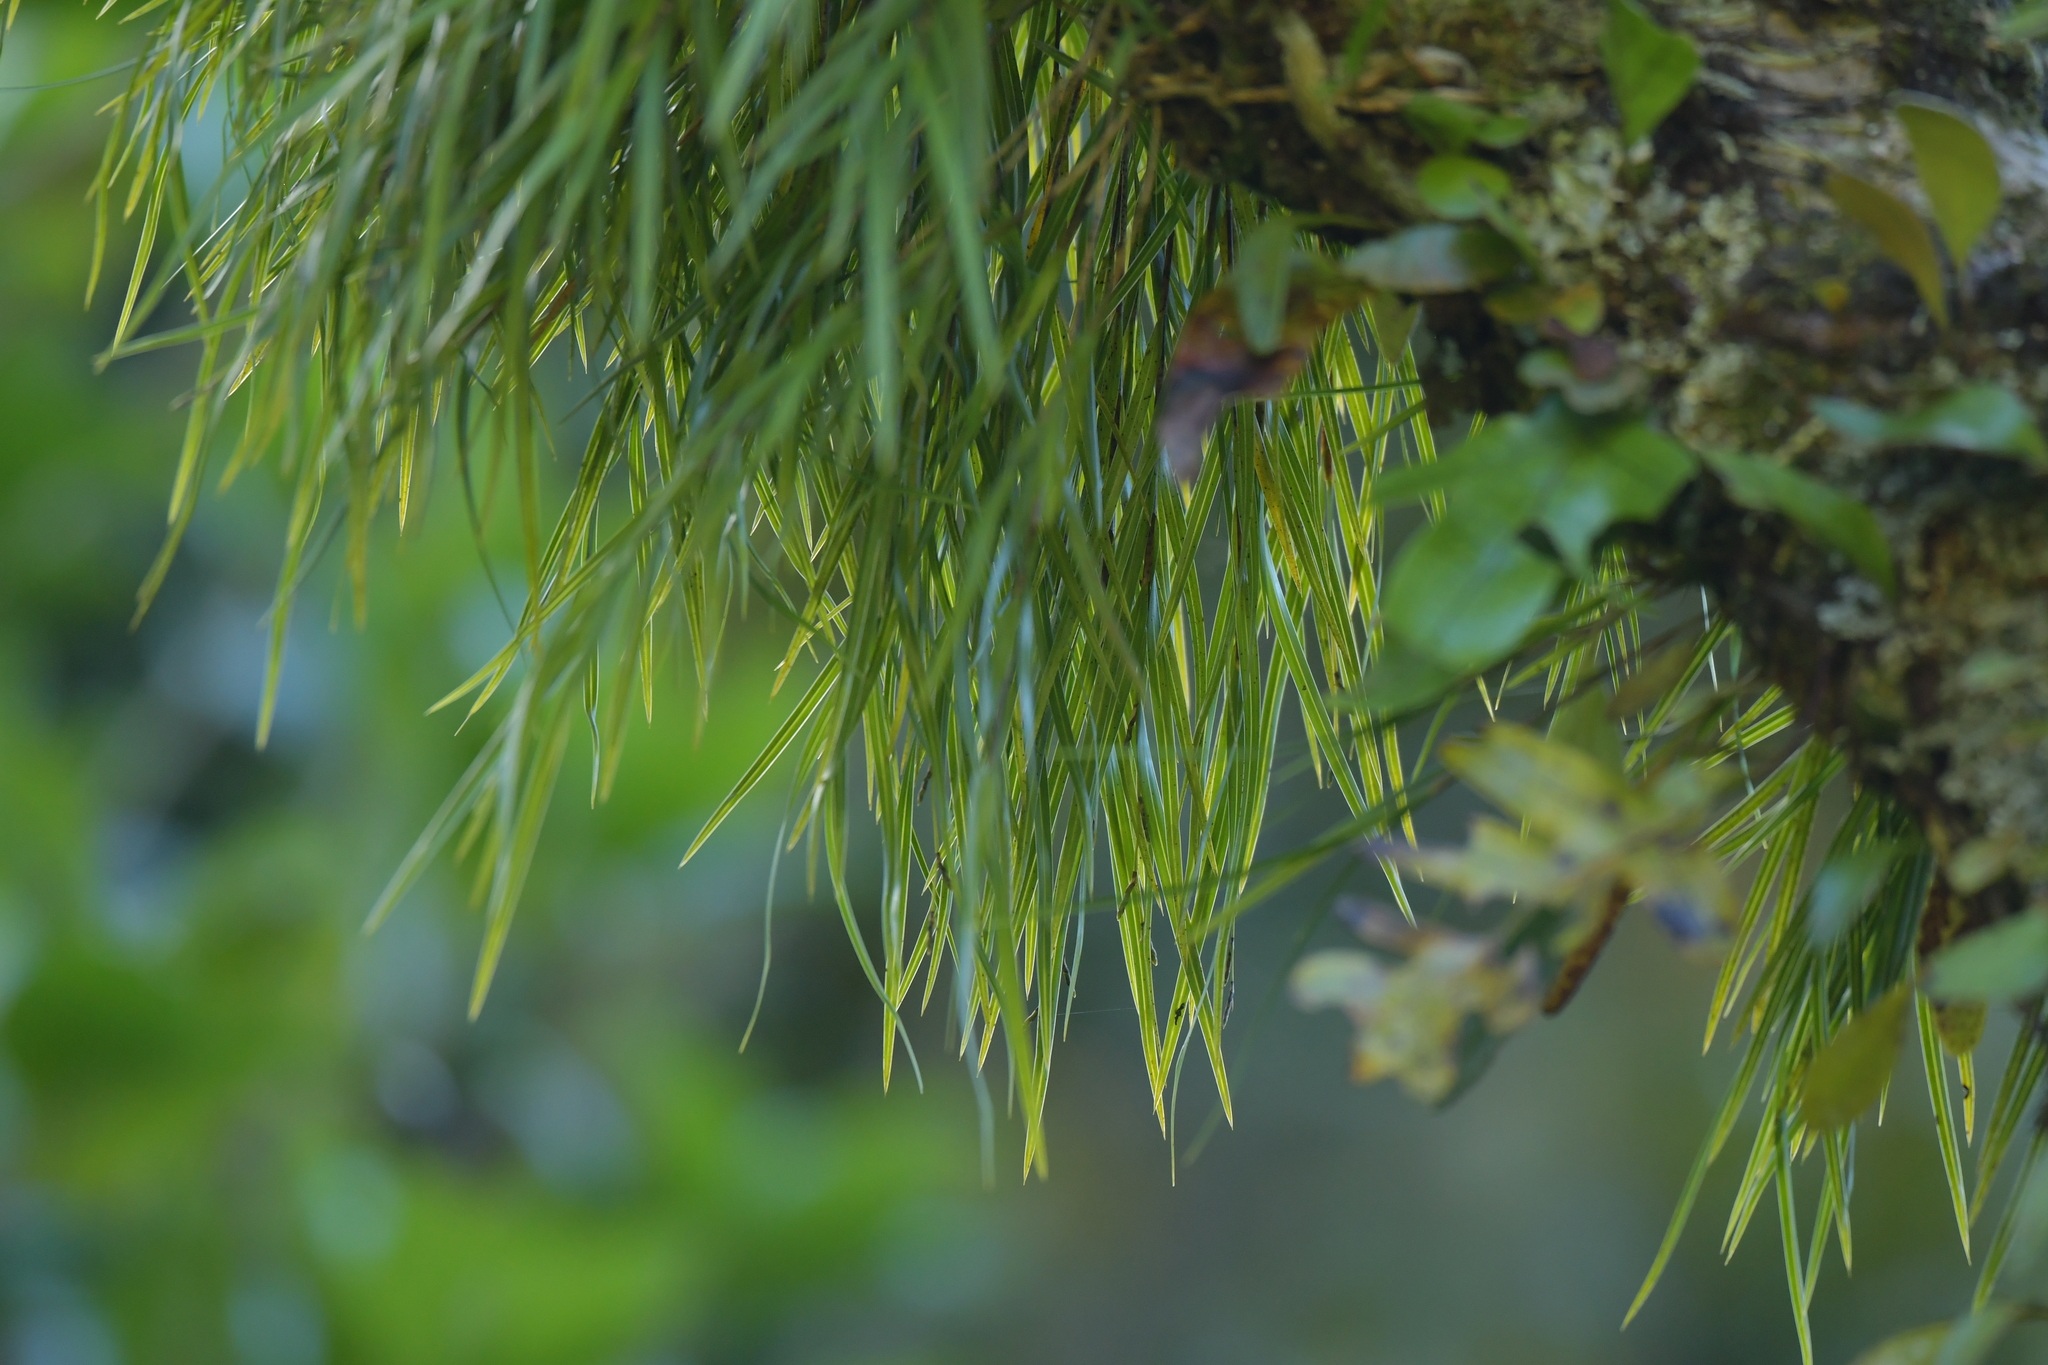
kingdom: Plantae
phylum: Tracheophyta
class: Liliopsida
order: Asparagales
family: Orchidaceae
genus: Earina
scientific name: Earina mucronata
